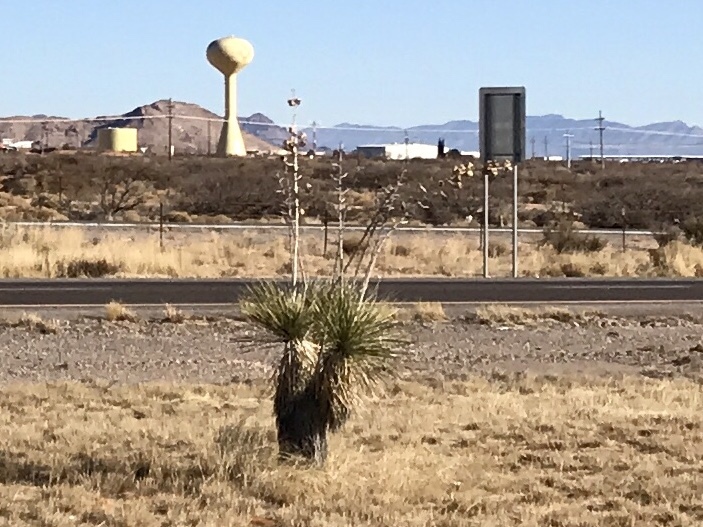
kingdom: Plantae
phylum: Tracheophyta
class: Liliopsida
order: Asparagales
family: Asparagaceae
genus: Yucca
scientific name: Yucca elata
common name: Palmella
